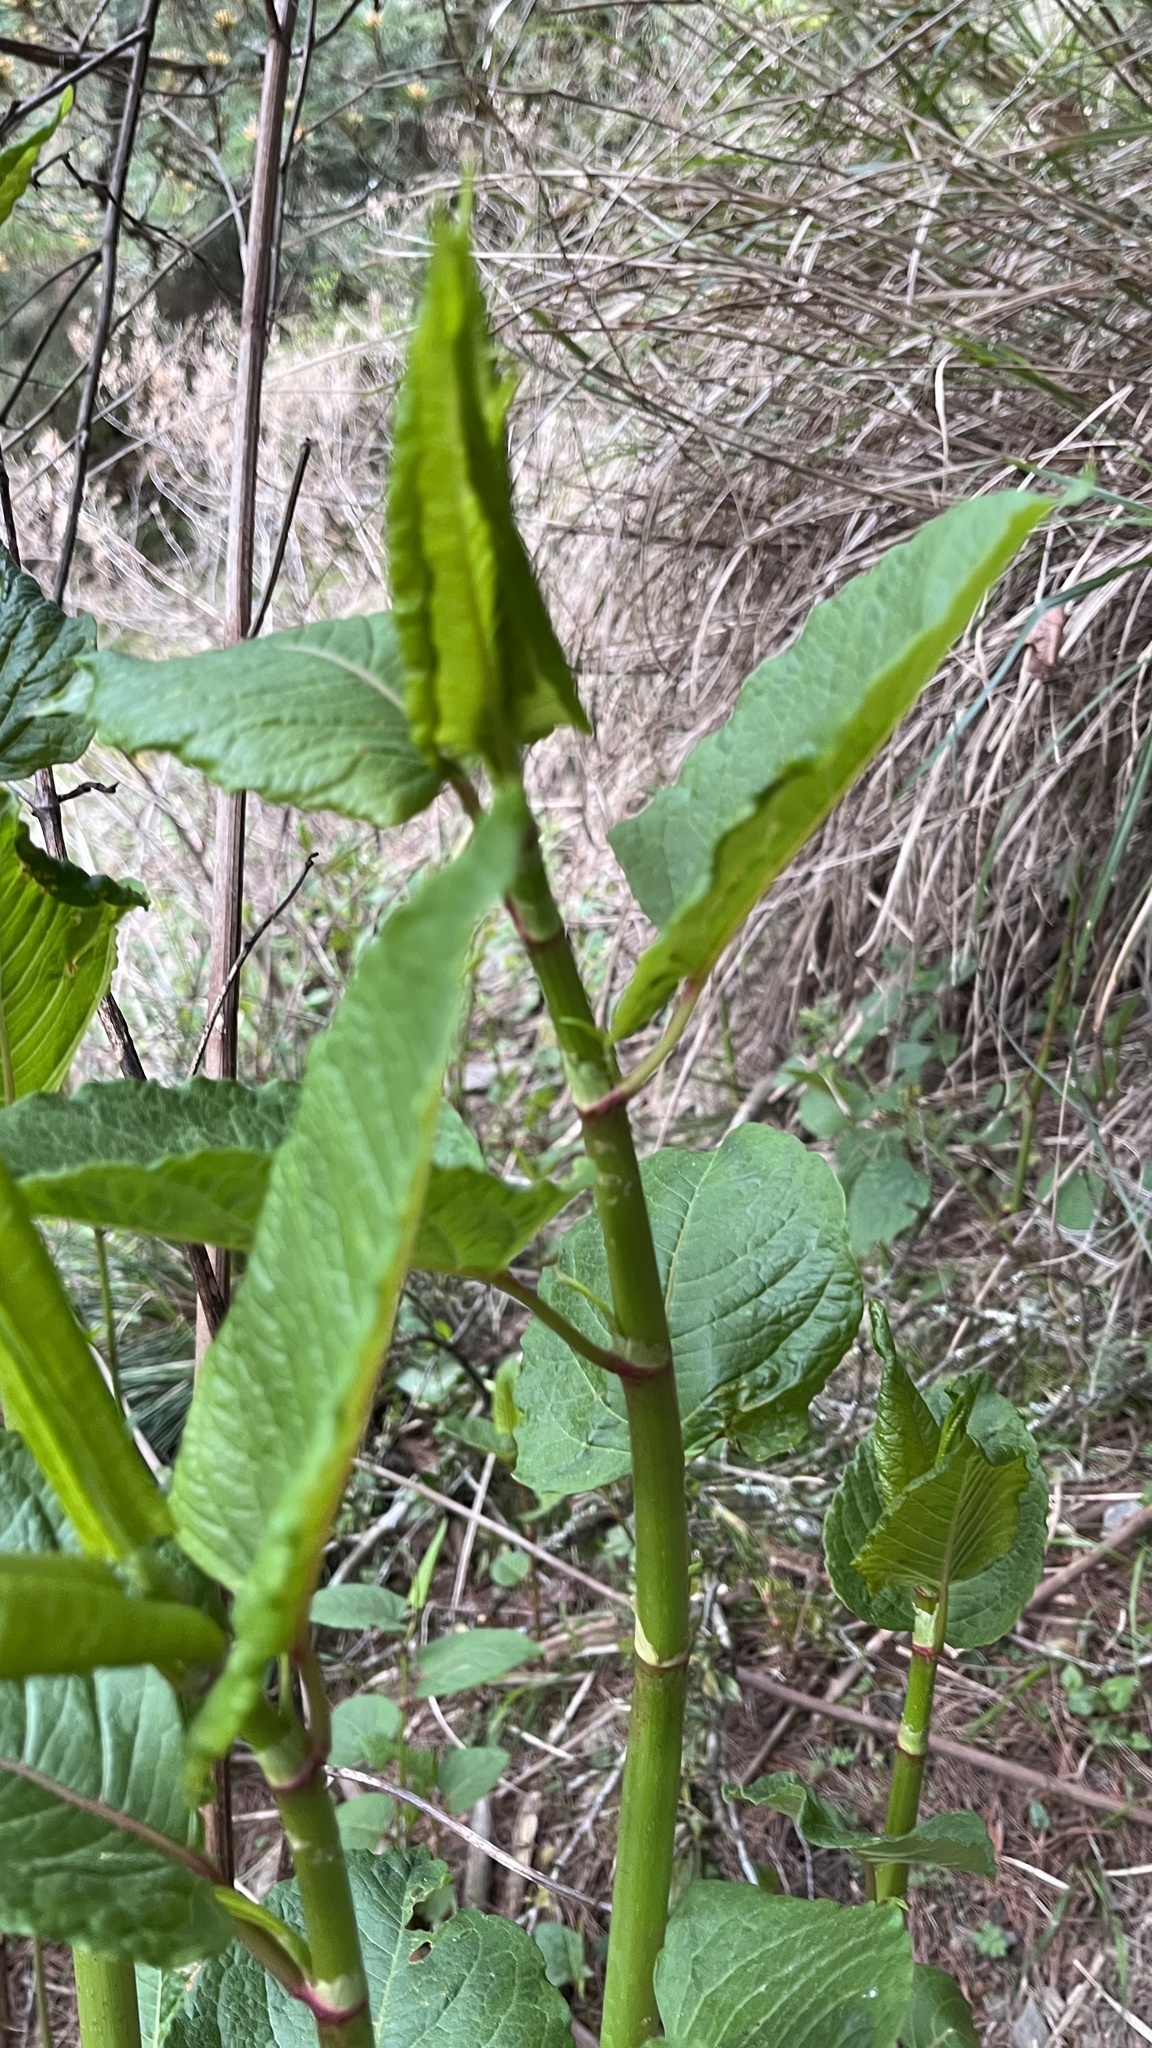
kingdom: Plantae
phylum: Tracheophyta
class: Magnoliopsida
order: Caryophyllales
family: Polygonaceae
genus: Reynoutria
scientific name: Reynoutria japonica
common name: Japanese knotweed
